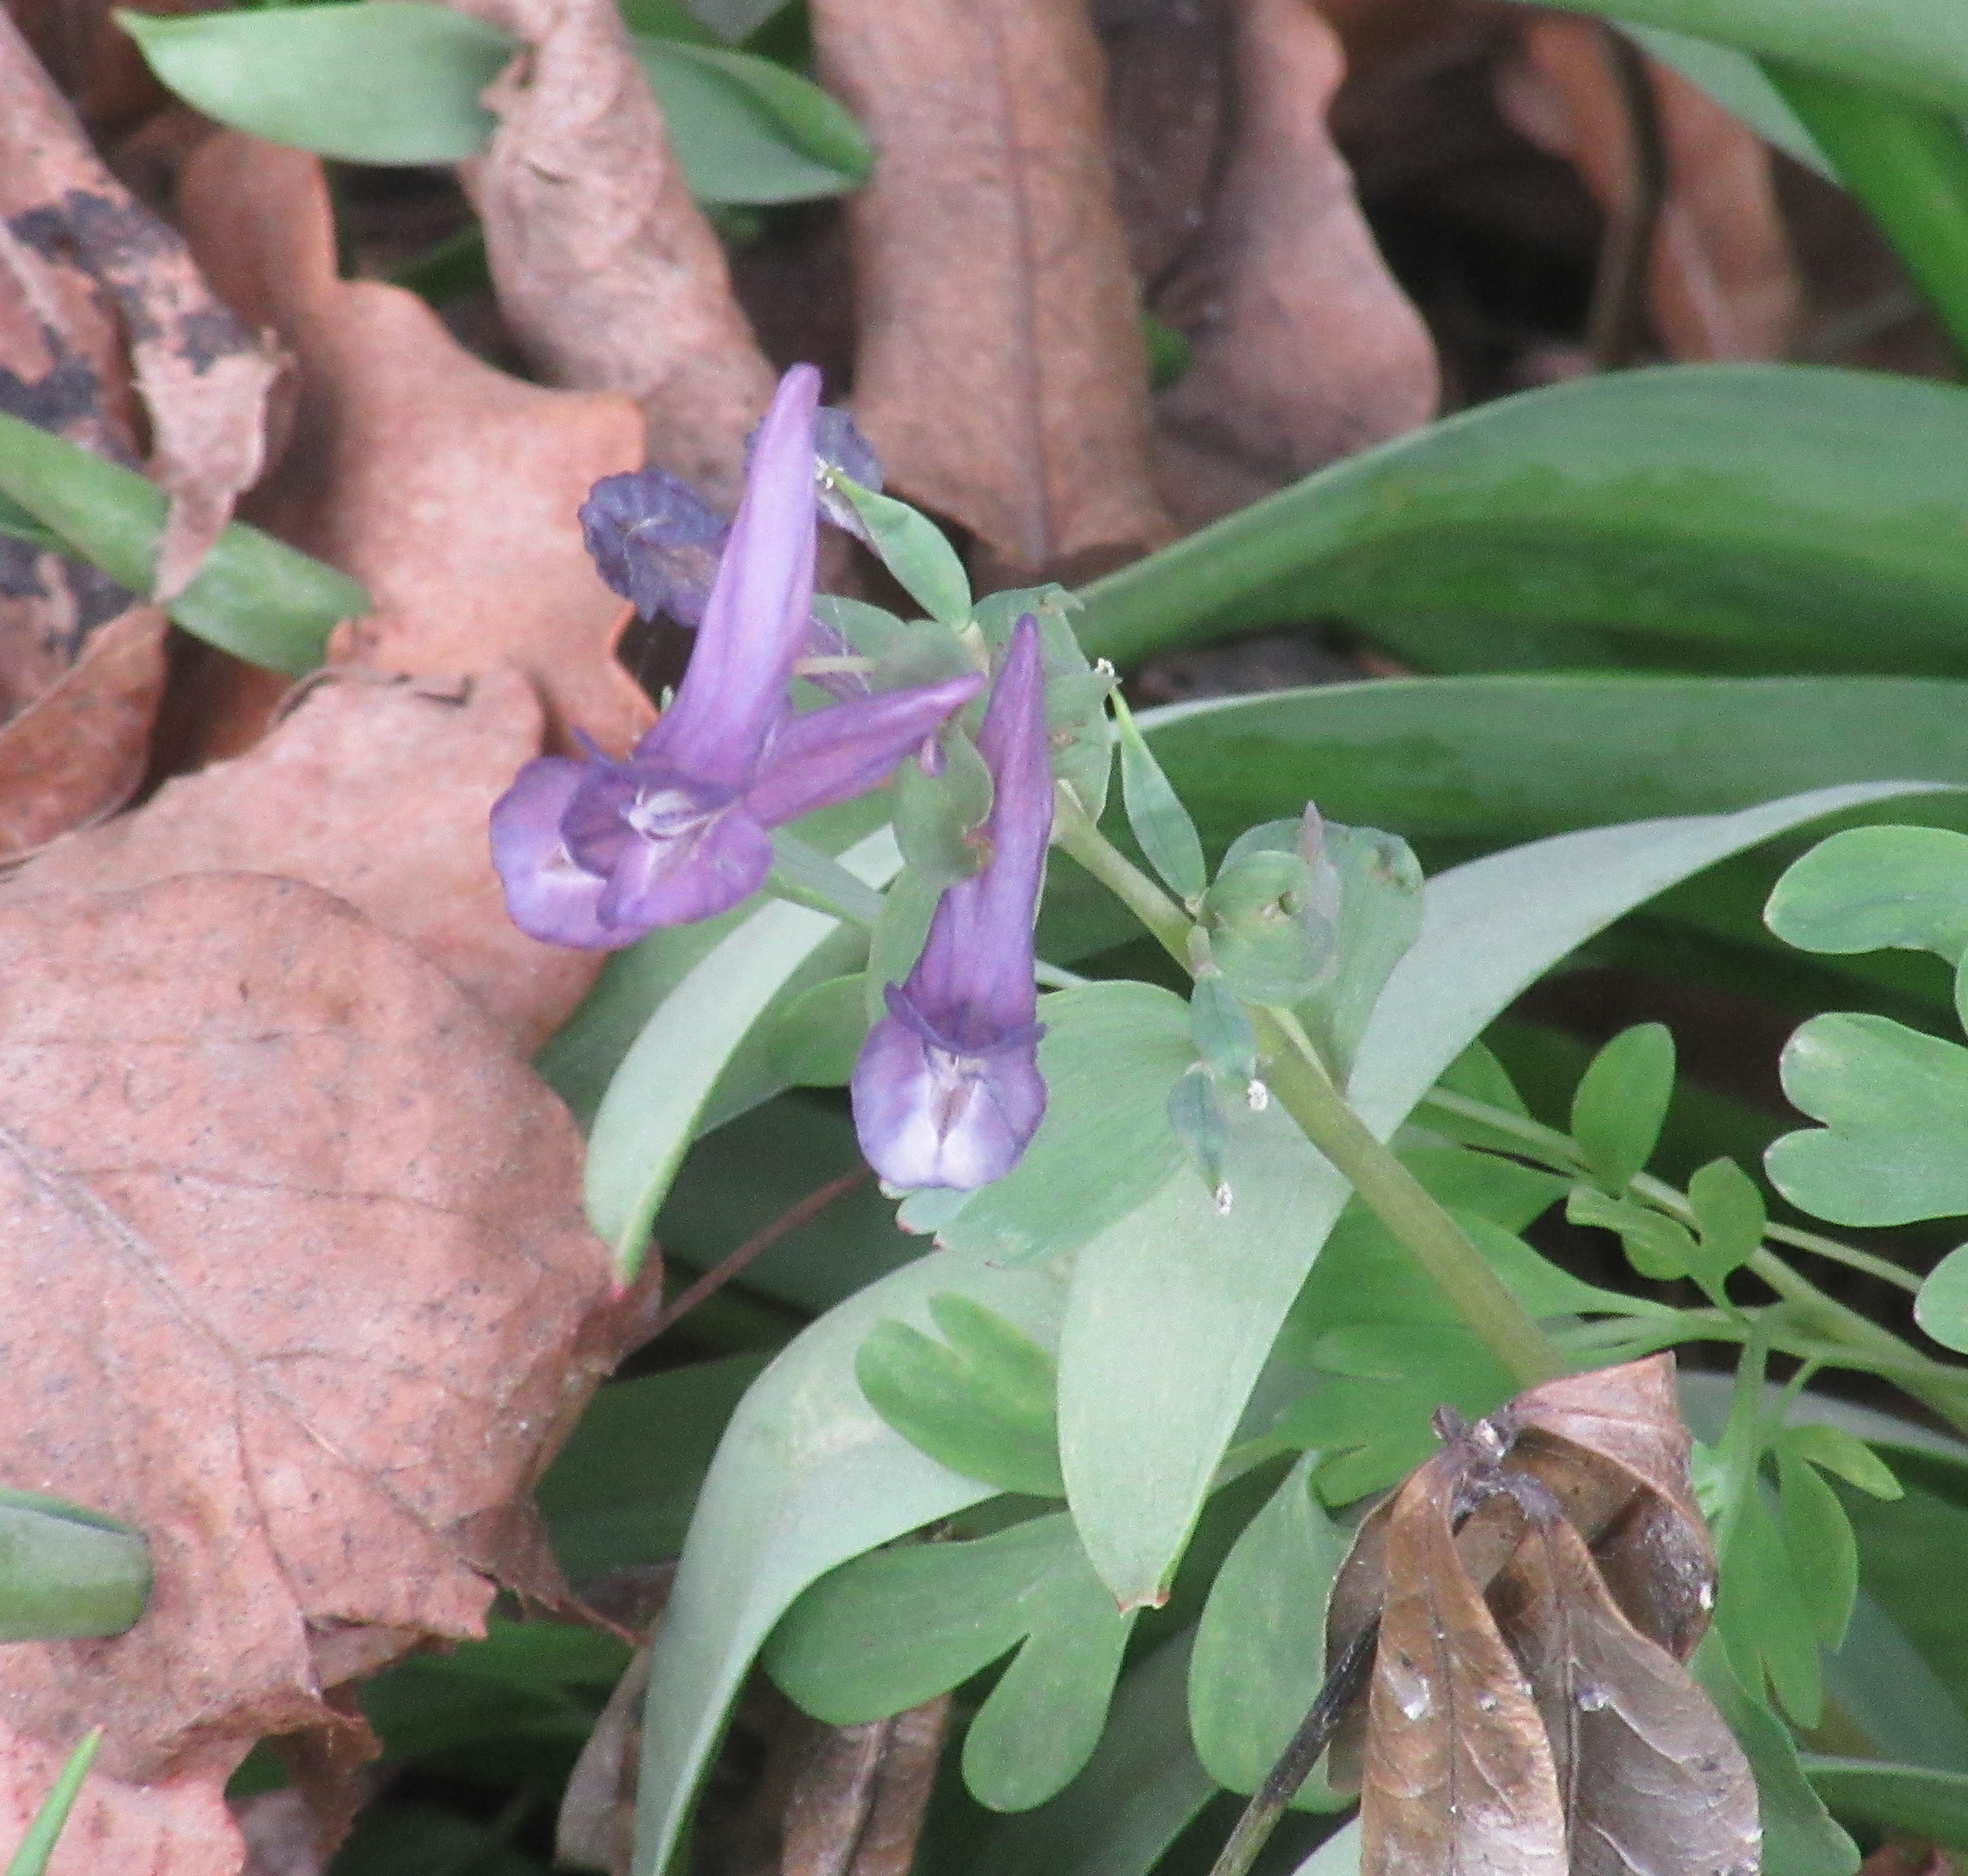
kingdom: Plantae
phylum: Tracheophyta
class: Magnoliopsida
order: Ranunculales
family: Papaveraceae
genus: Corydalis
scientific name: Corydalis solida
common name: Bird-in-a-bush
